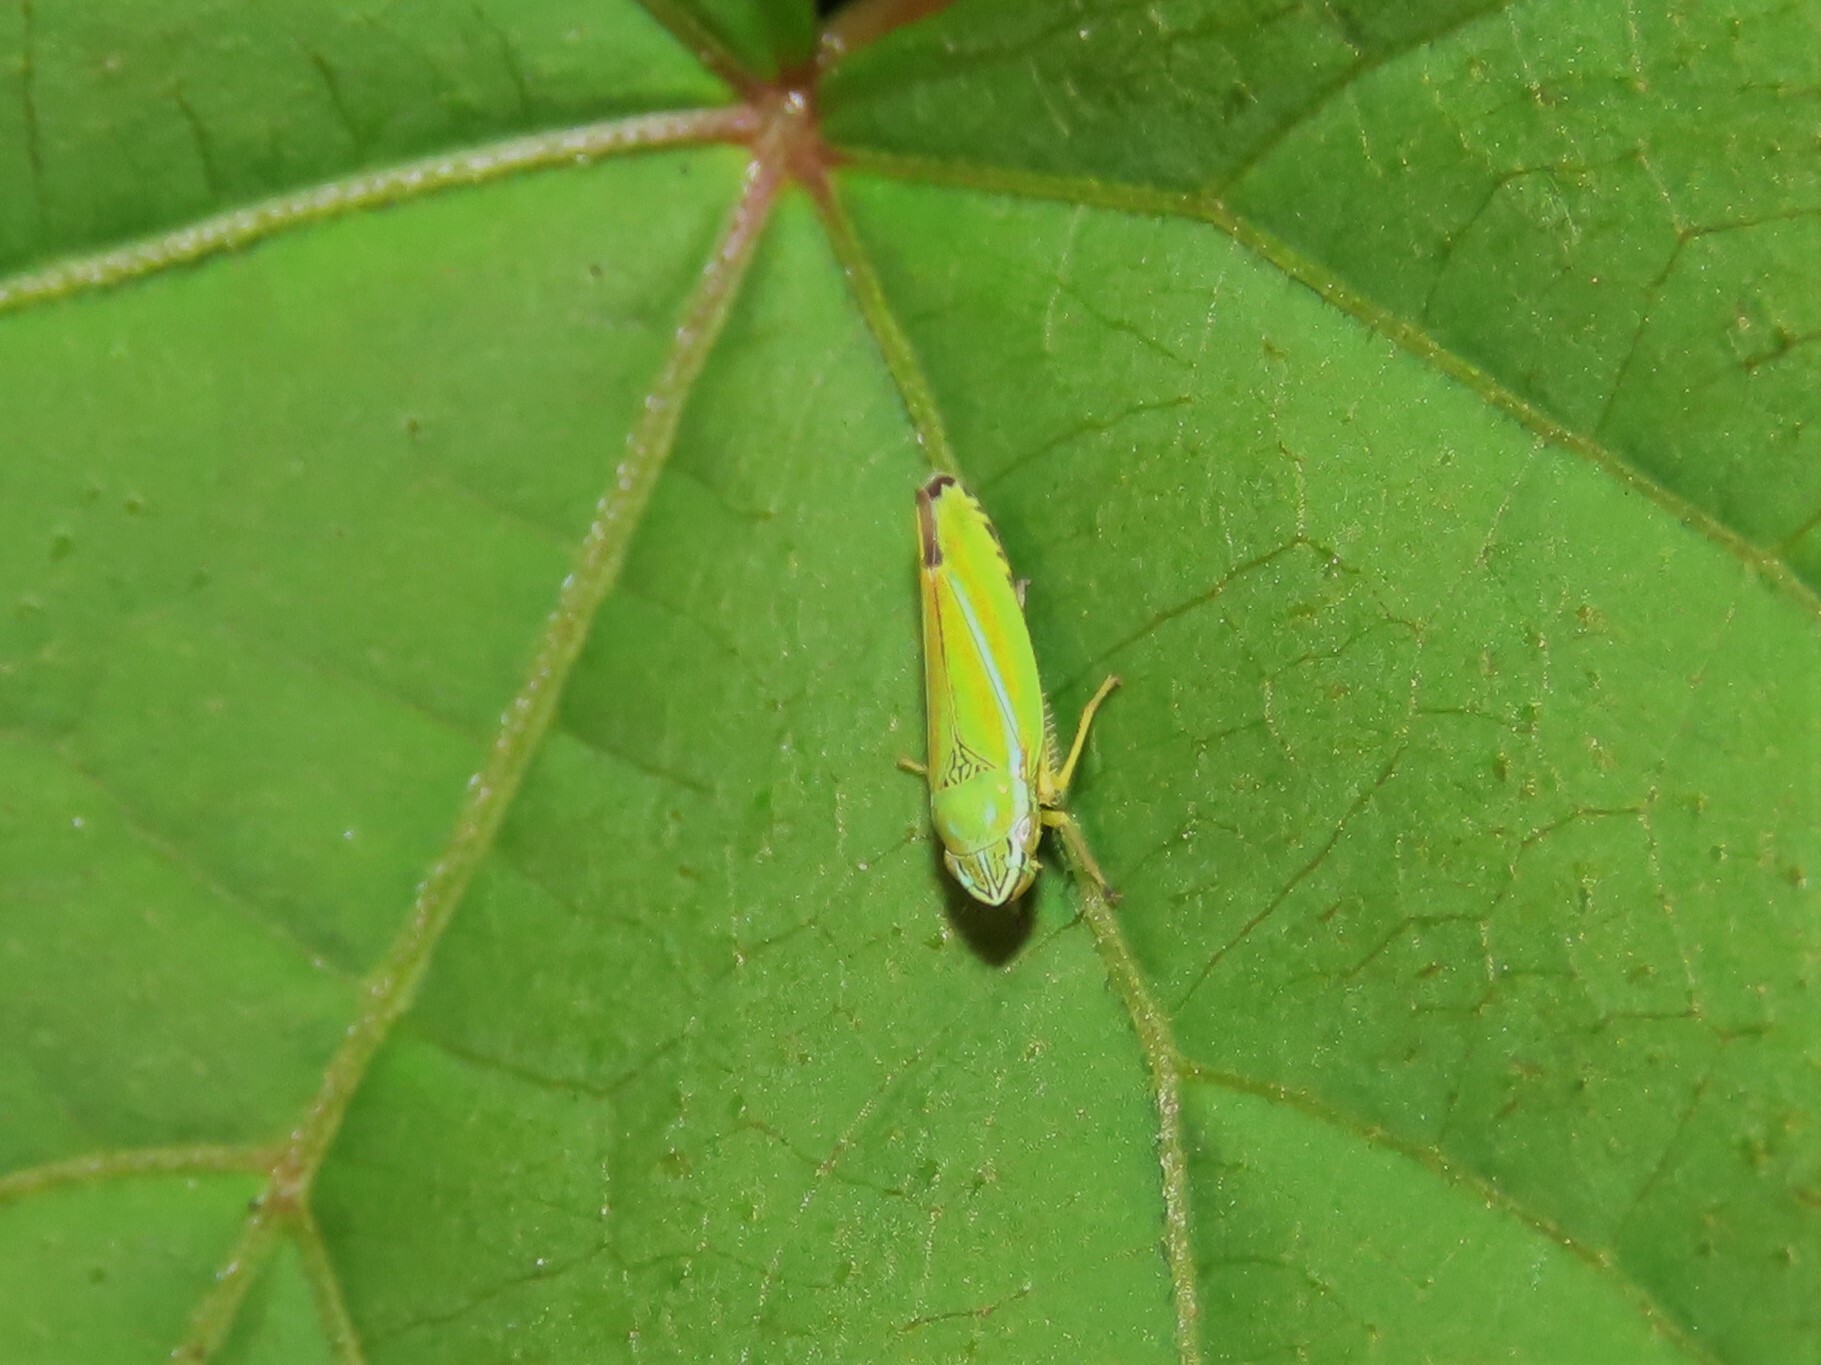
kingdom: Animalia
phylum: Arthropoda
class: Insecta
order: Hemiptera
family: Cicadellidae
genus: Graphocephala
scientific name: Graphocephala versuta
